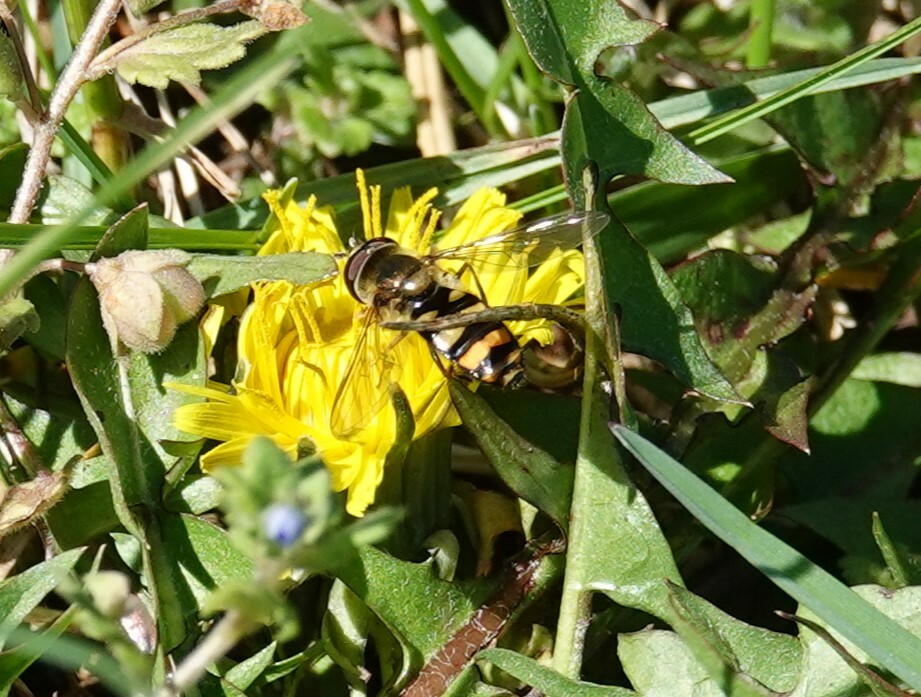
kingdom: Animalia
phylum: Arthropoda
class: Insecta
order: Diptera
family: Syrphidae
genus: Eupeodes
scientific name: Eupeodes
